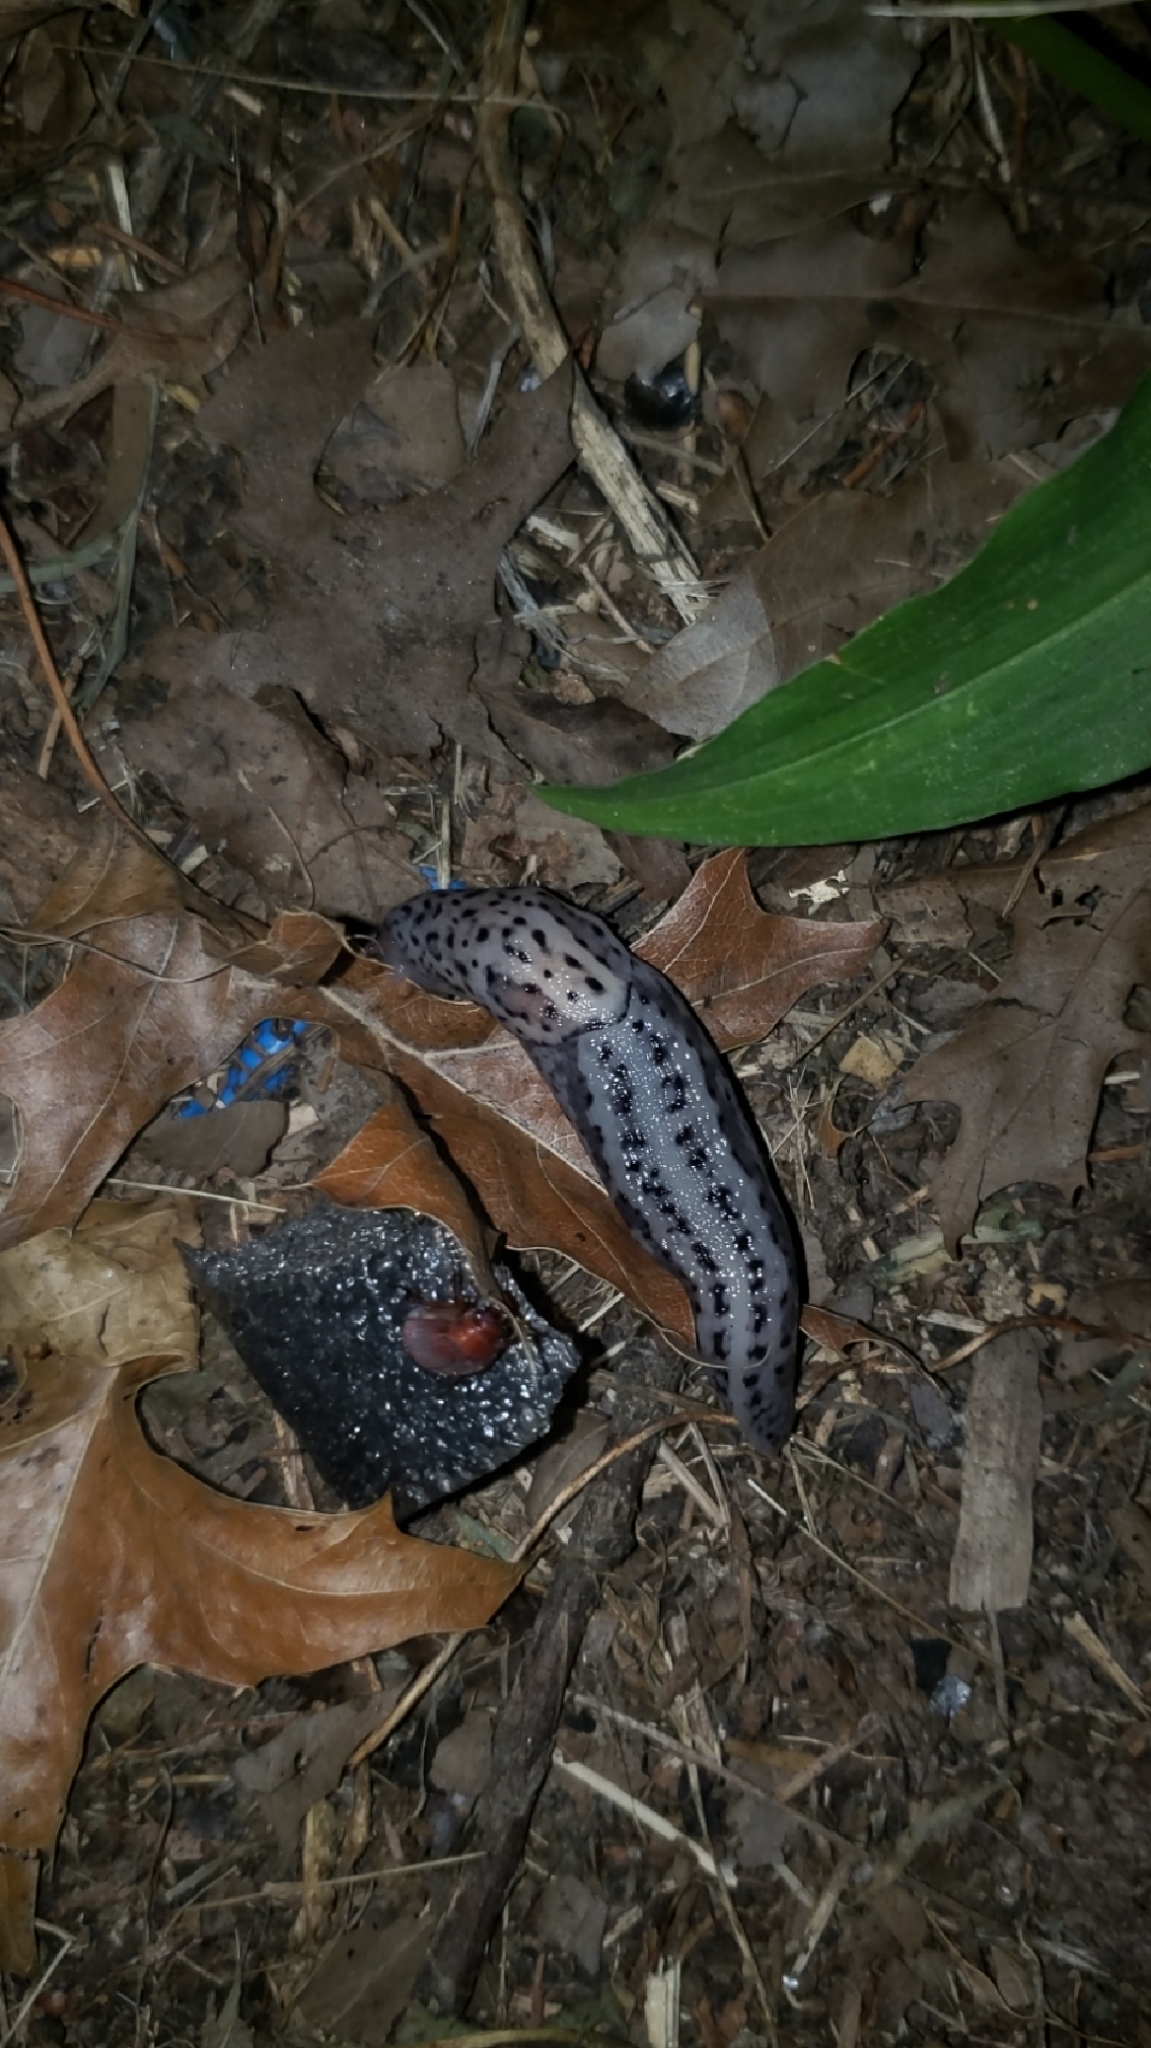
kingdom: Animalia
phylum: Mollusca
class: Gastropoda
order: Stylommatophora
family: Limacidae
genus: Limax
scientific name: Limax maximus
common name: Great grey slug
